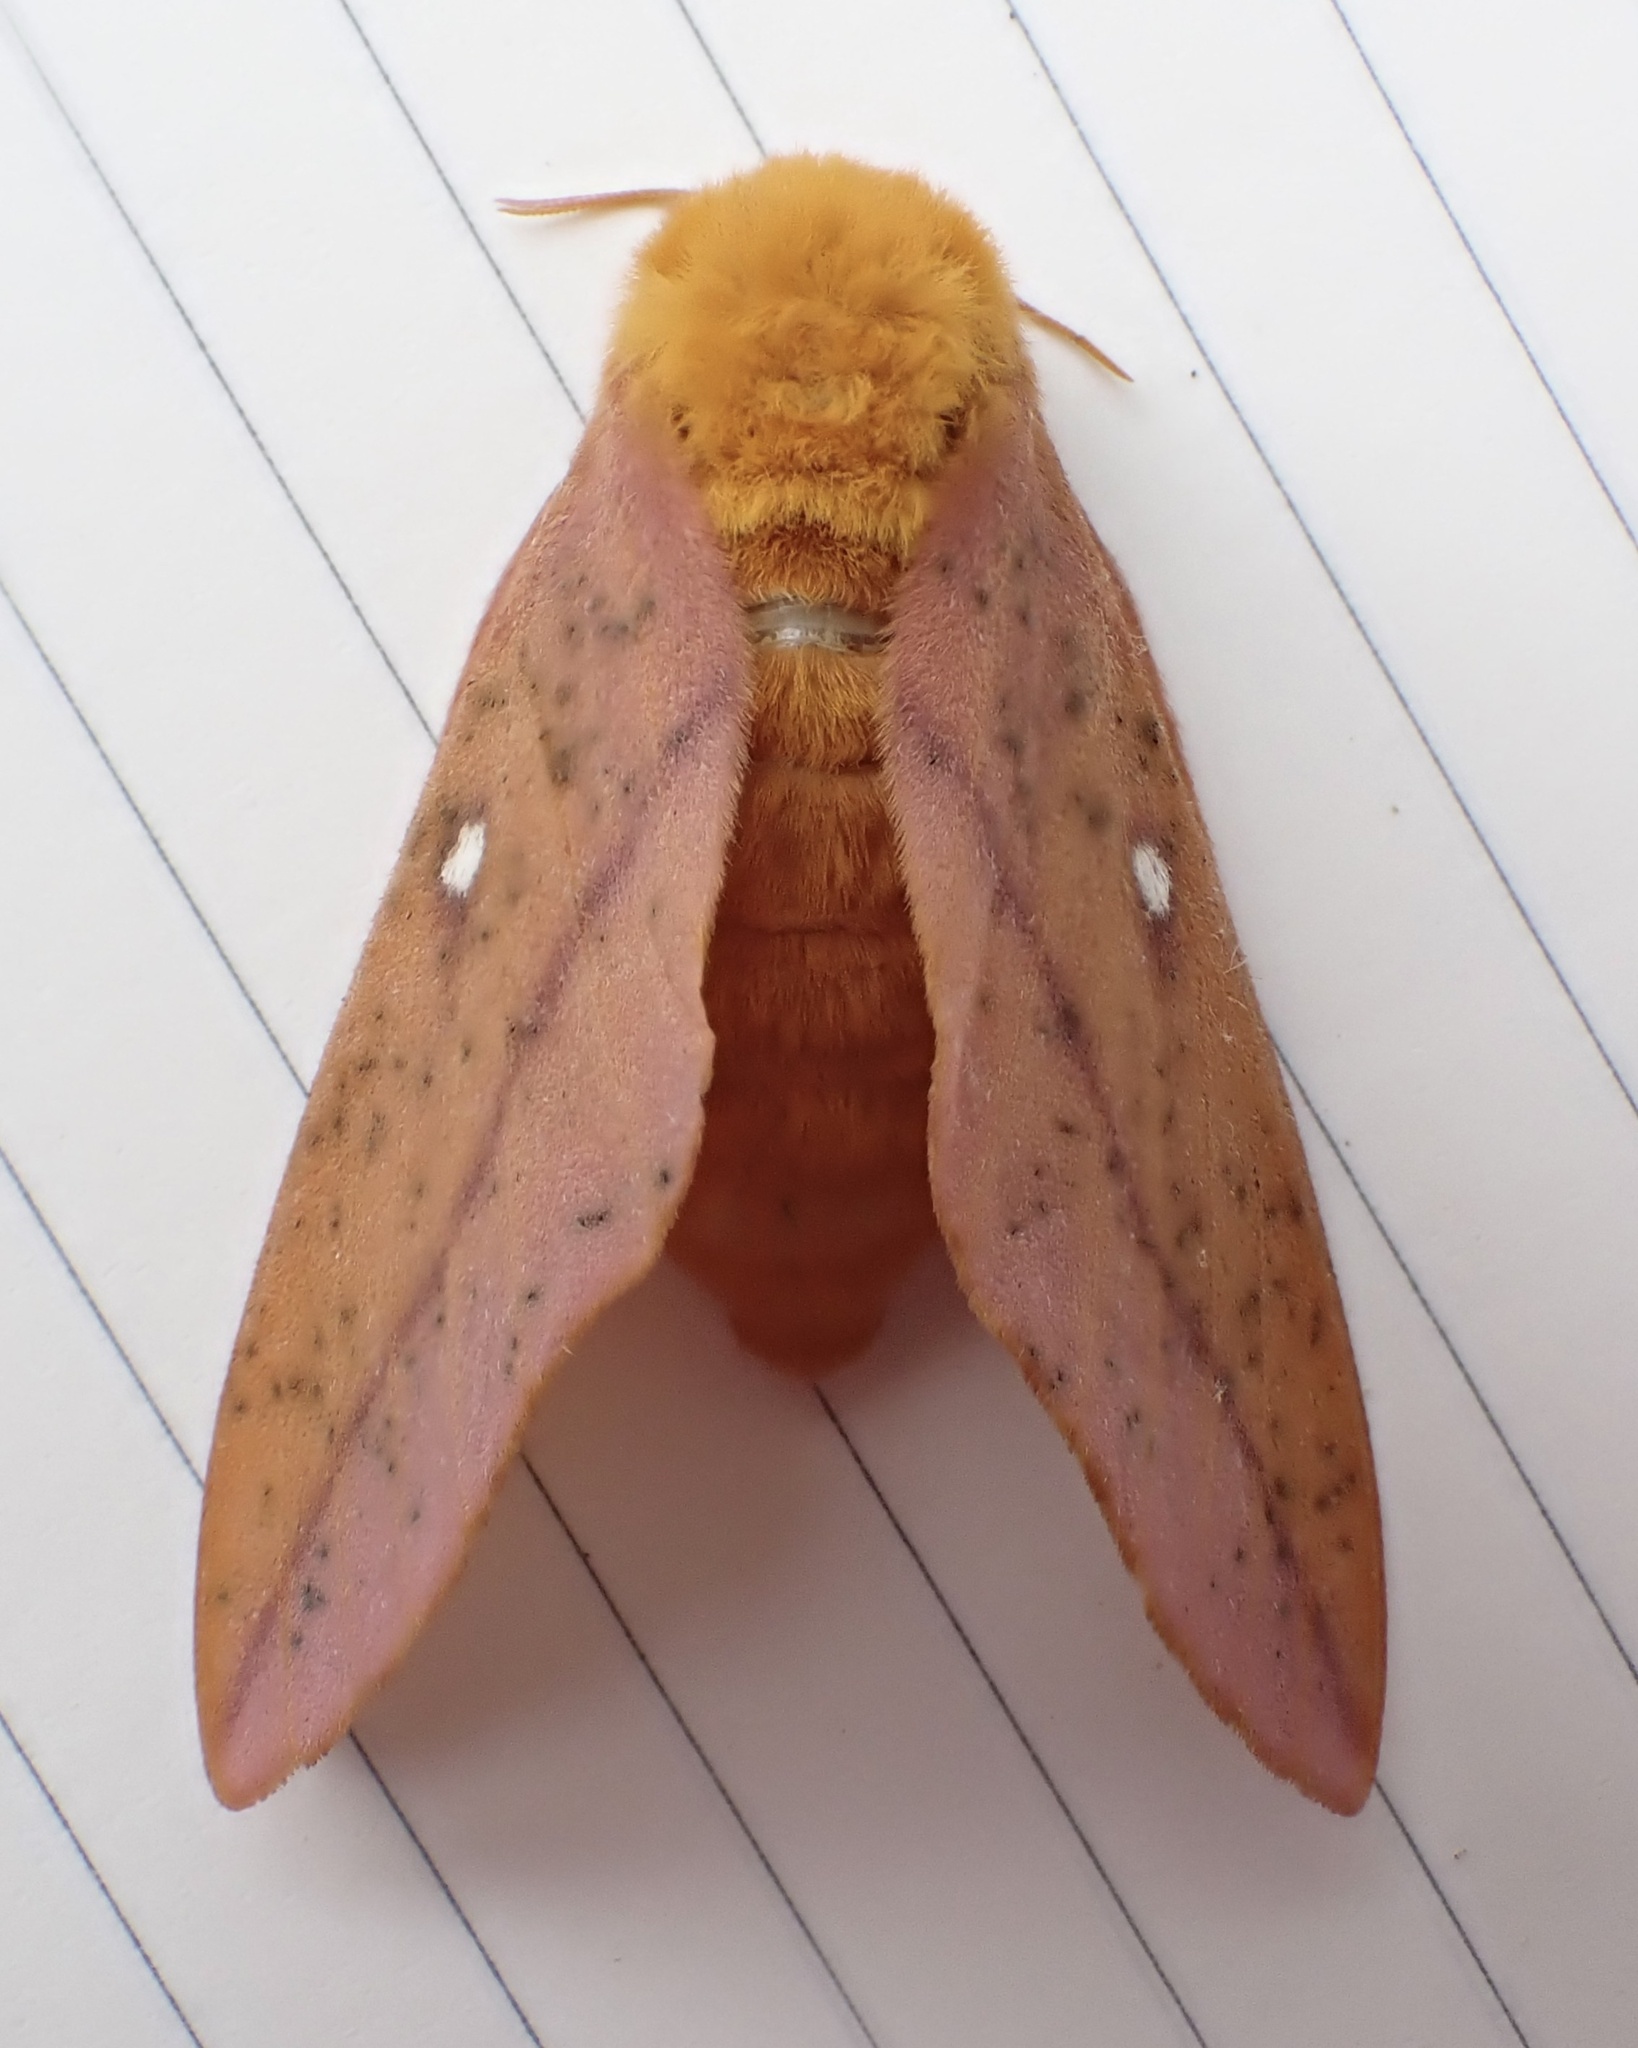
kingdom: Animalia
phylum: Arthropoda
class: Insecta
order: Lepidoptera
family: Saturniidae
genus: Anisota
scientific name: Anisota senatoria
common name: Orange-striped oakworm moth
